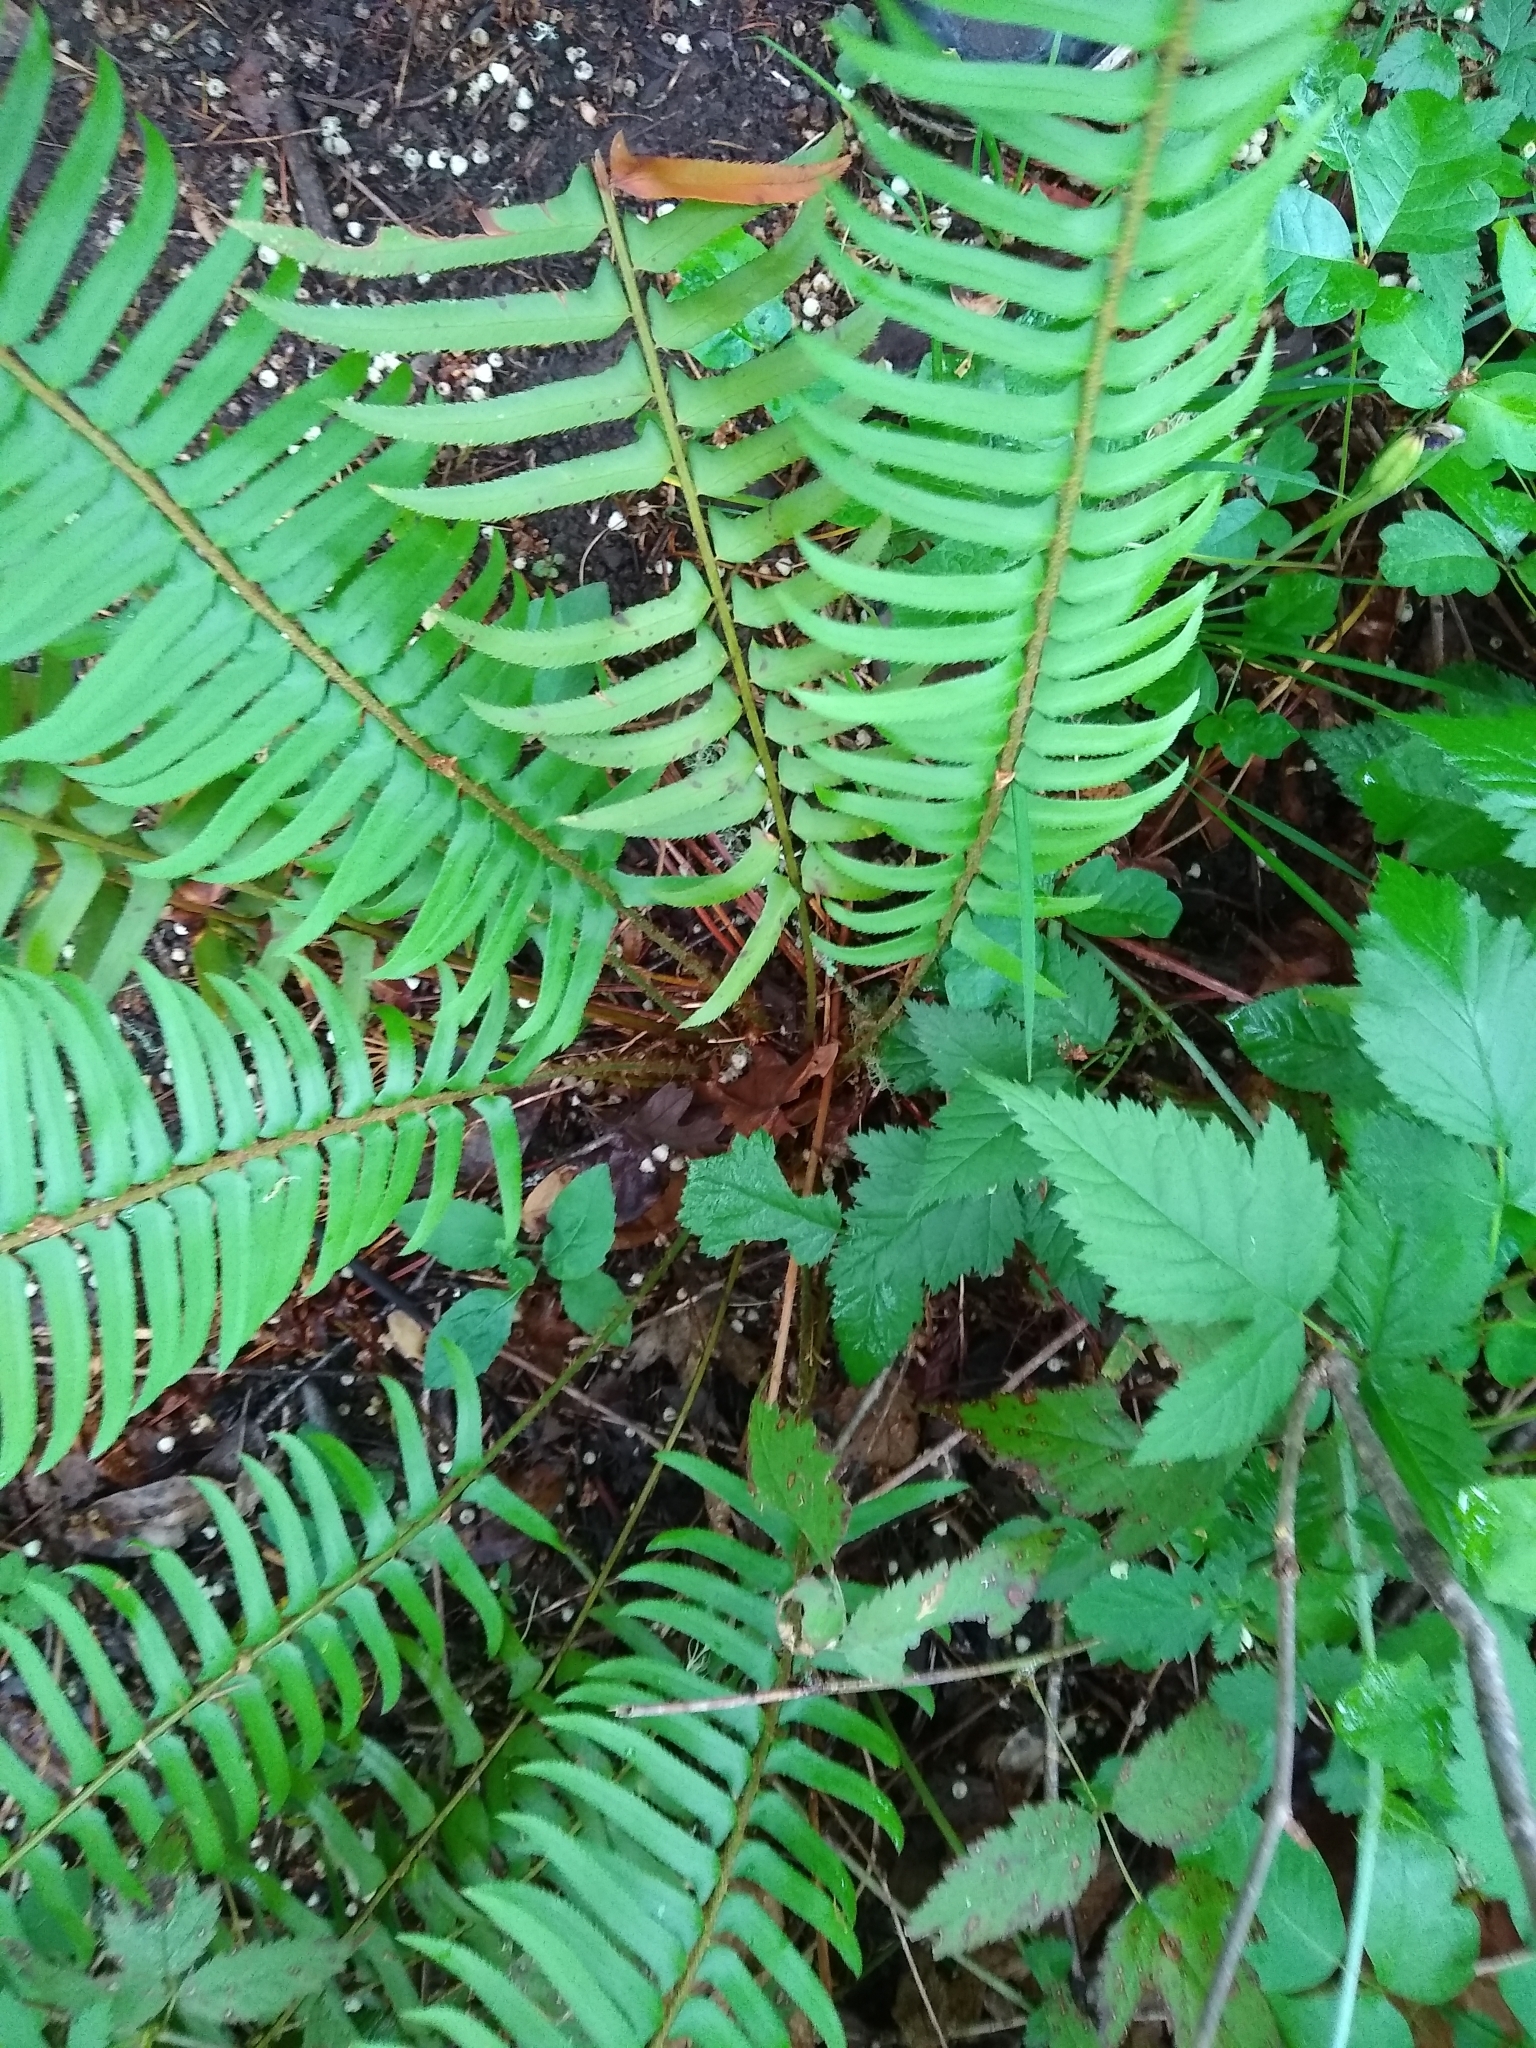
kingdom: Plantae
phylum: Tracheophyta
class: Polypodiopsida
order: Polypodiales
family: Dryopteridaceae
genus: Polystichum
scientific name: Polystichum munitum
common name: Western sword-fern
